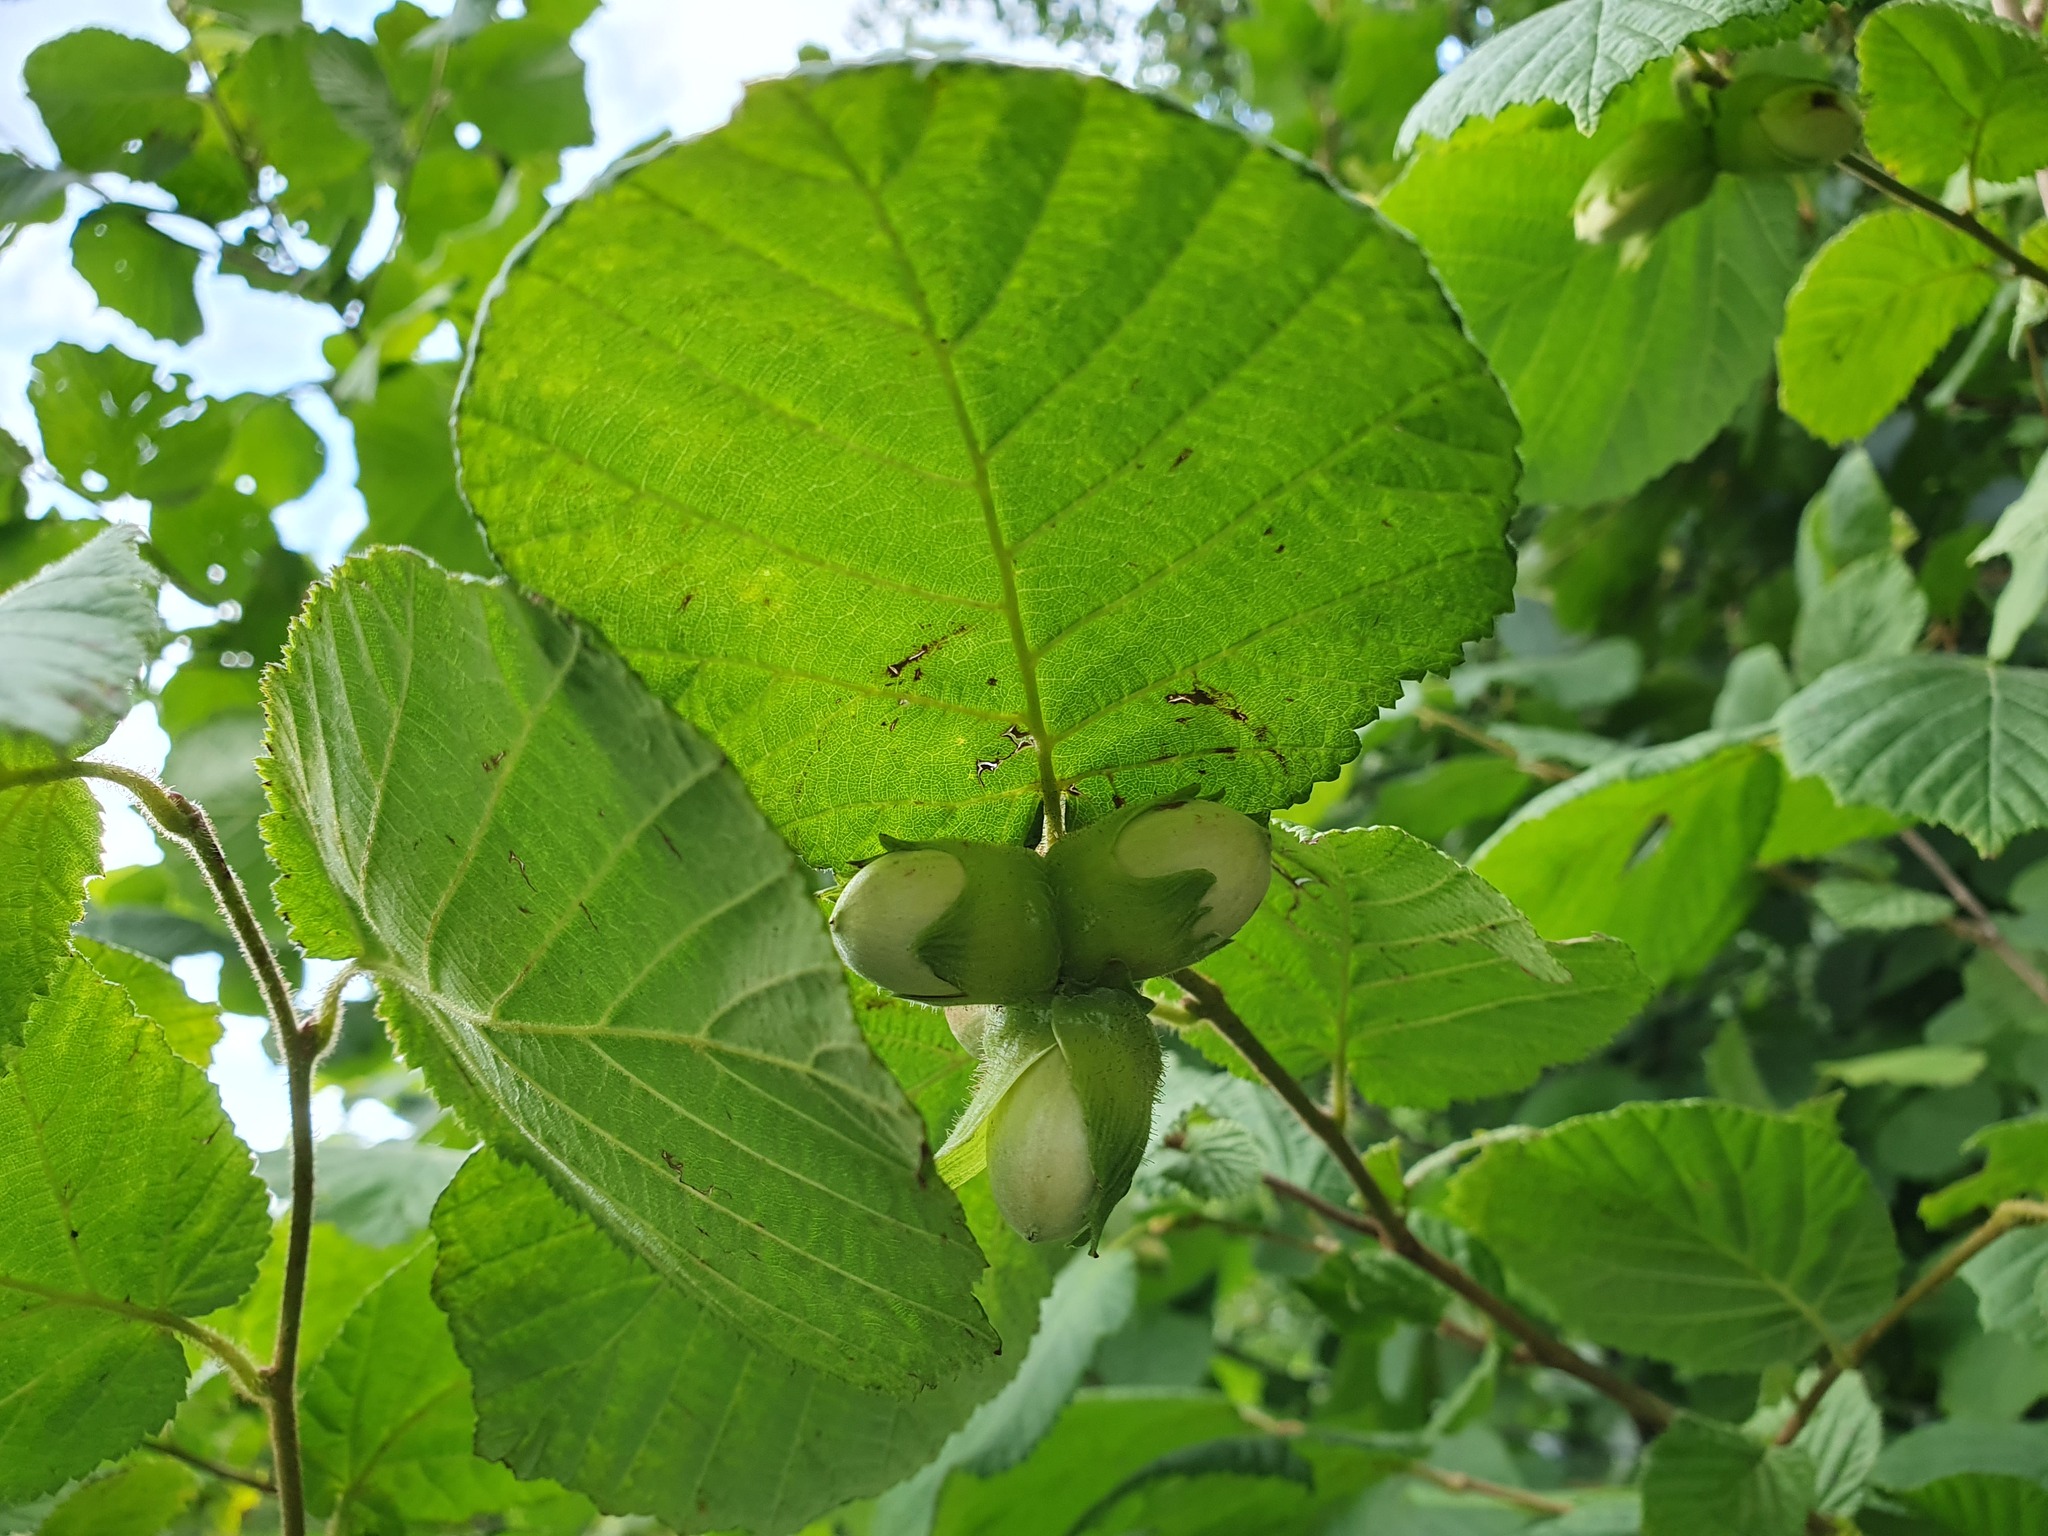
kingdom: Plantae
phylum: Tracheophyta
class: Magnoliopsida
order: Fagales
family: Betulaceae
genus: Corylus
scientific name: Corylus avellana
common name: European hazel
